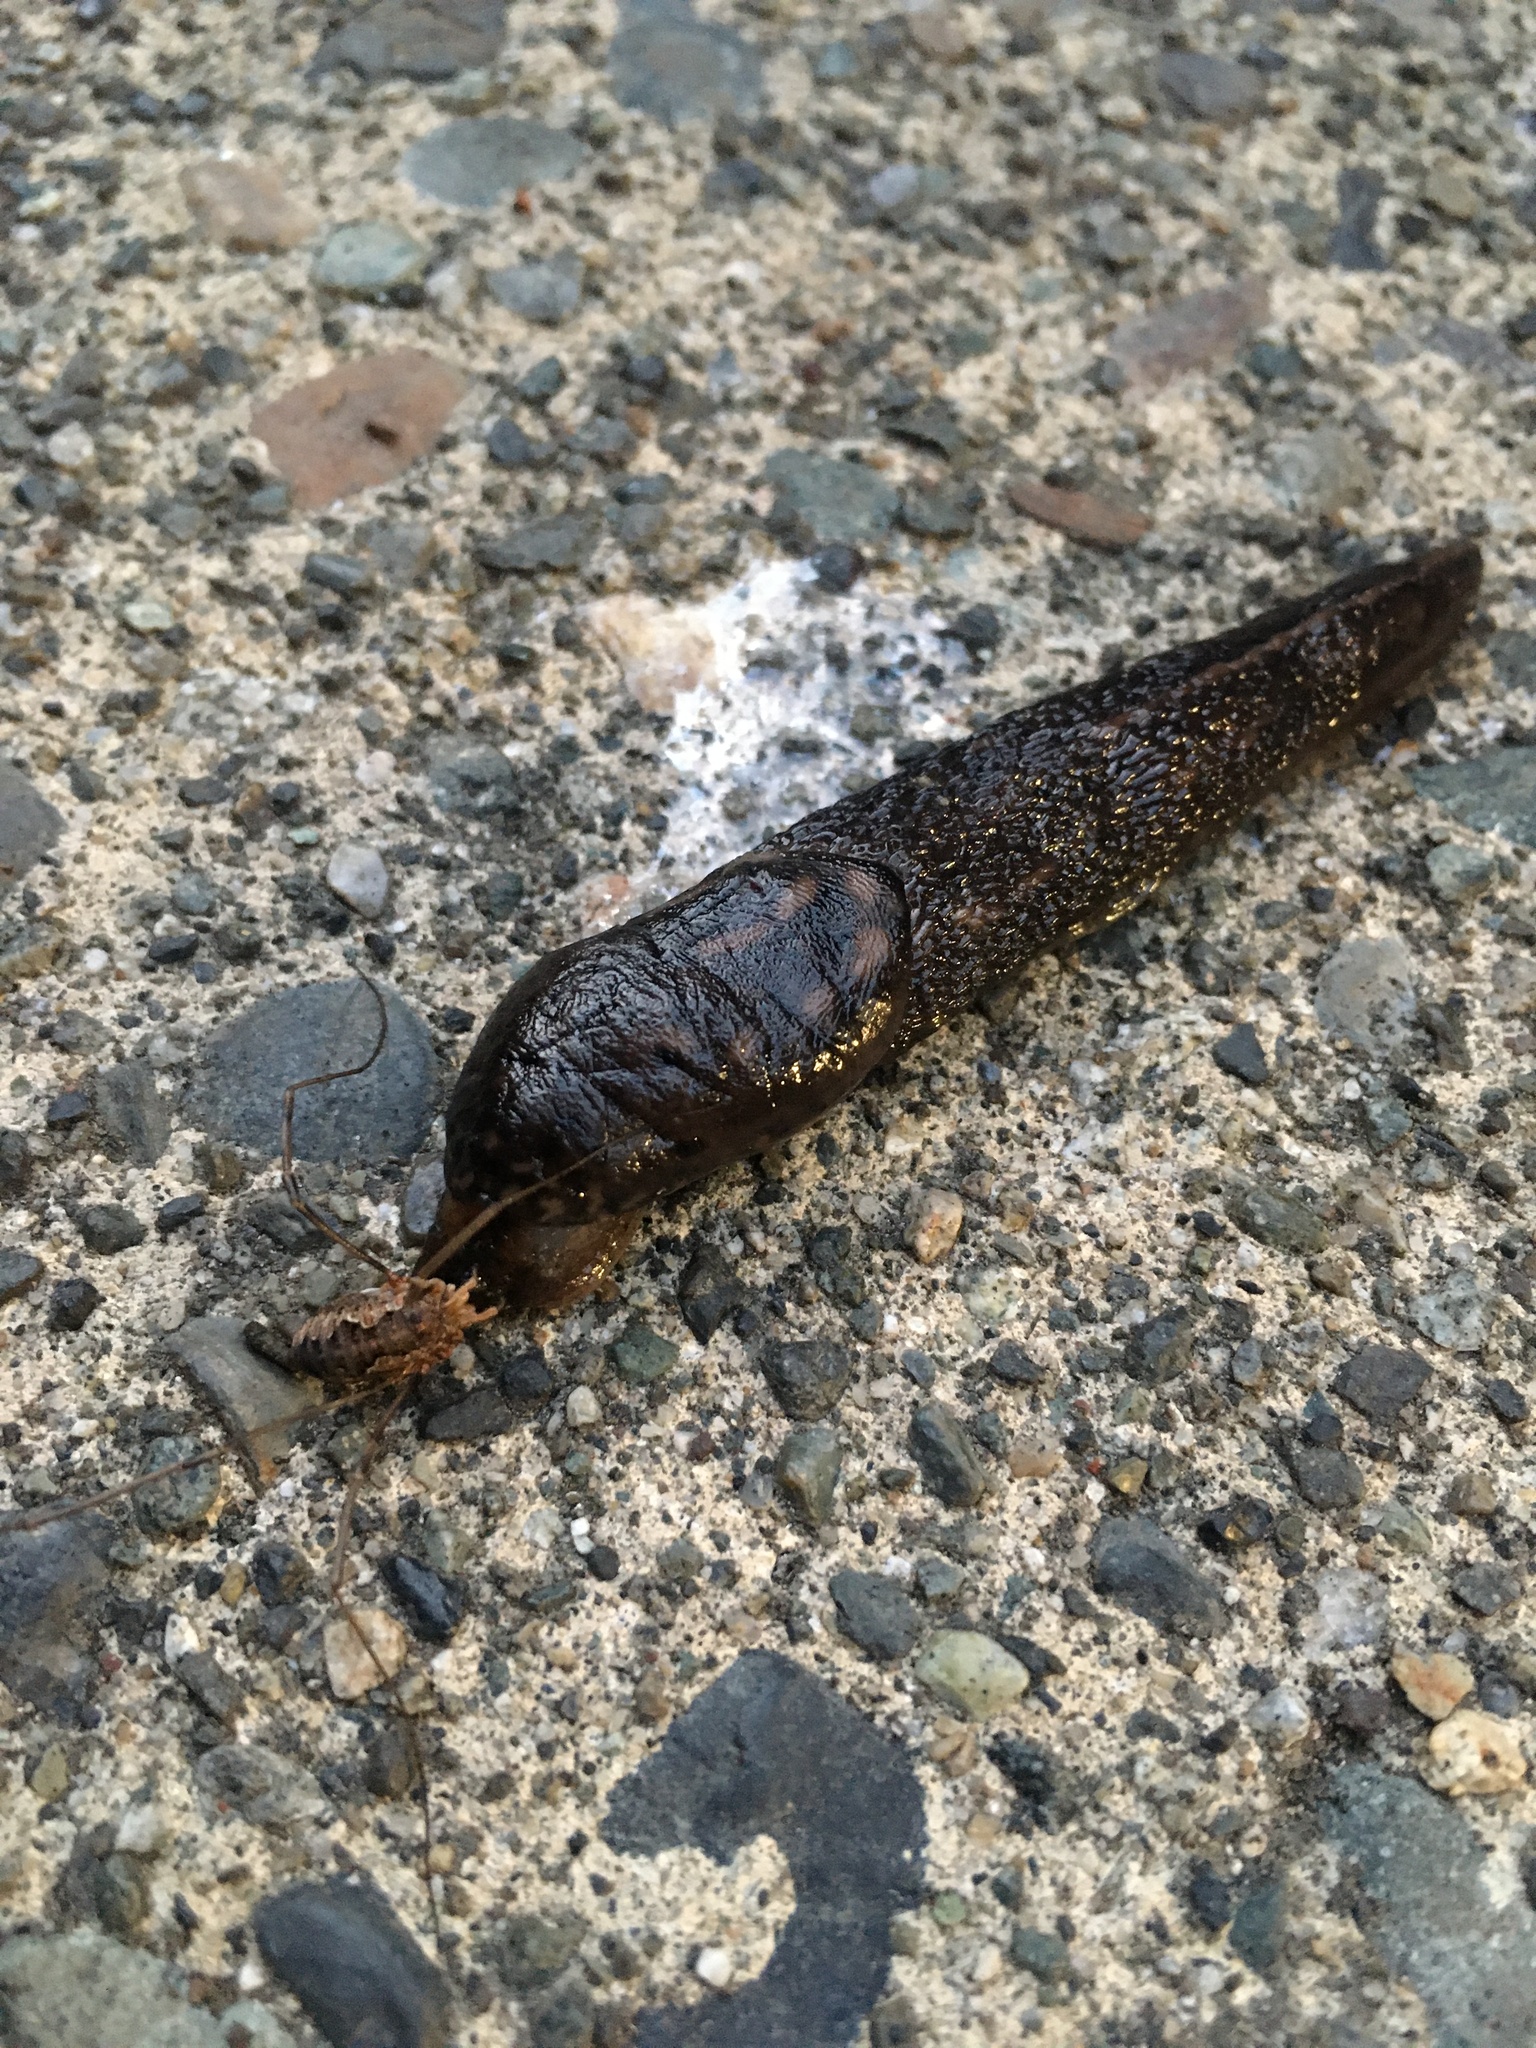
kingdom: Animalia
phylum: Arthropoda
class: Arachnida
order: Opiliones
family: Phalangiidae
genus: Phalangium
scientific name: Phalangium opilio
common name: Daddy longleg
